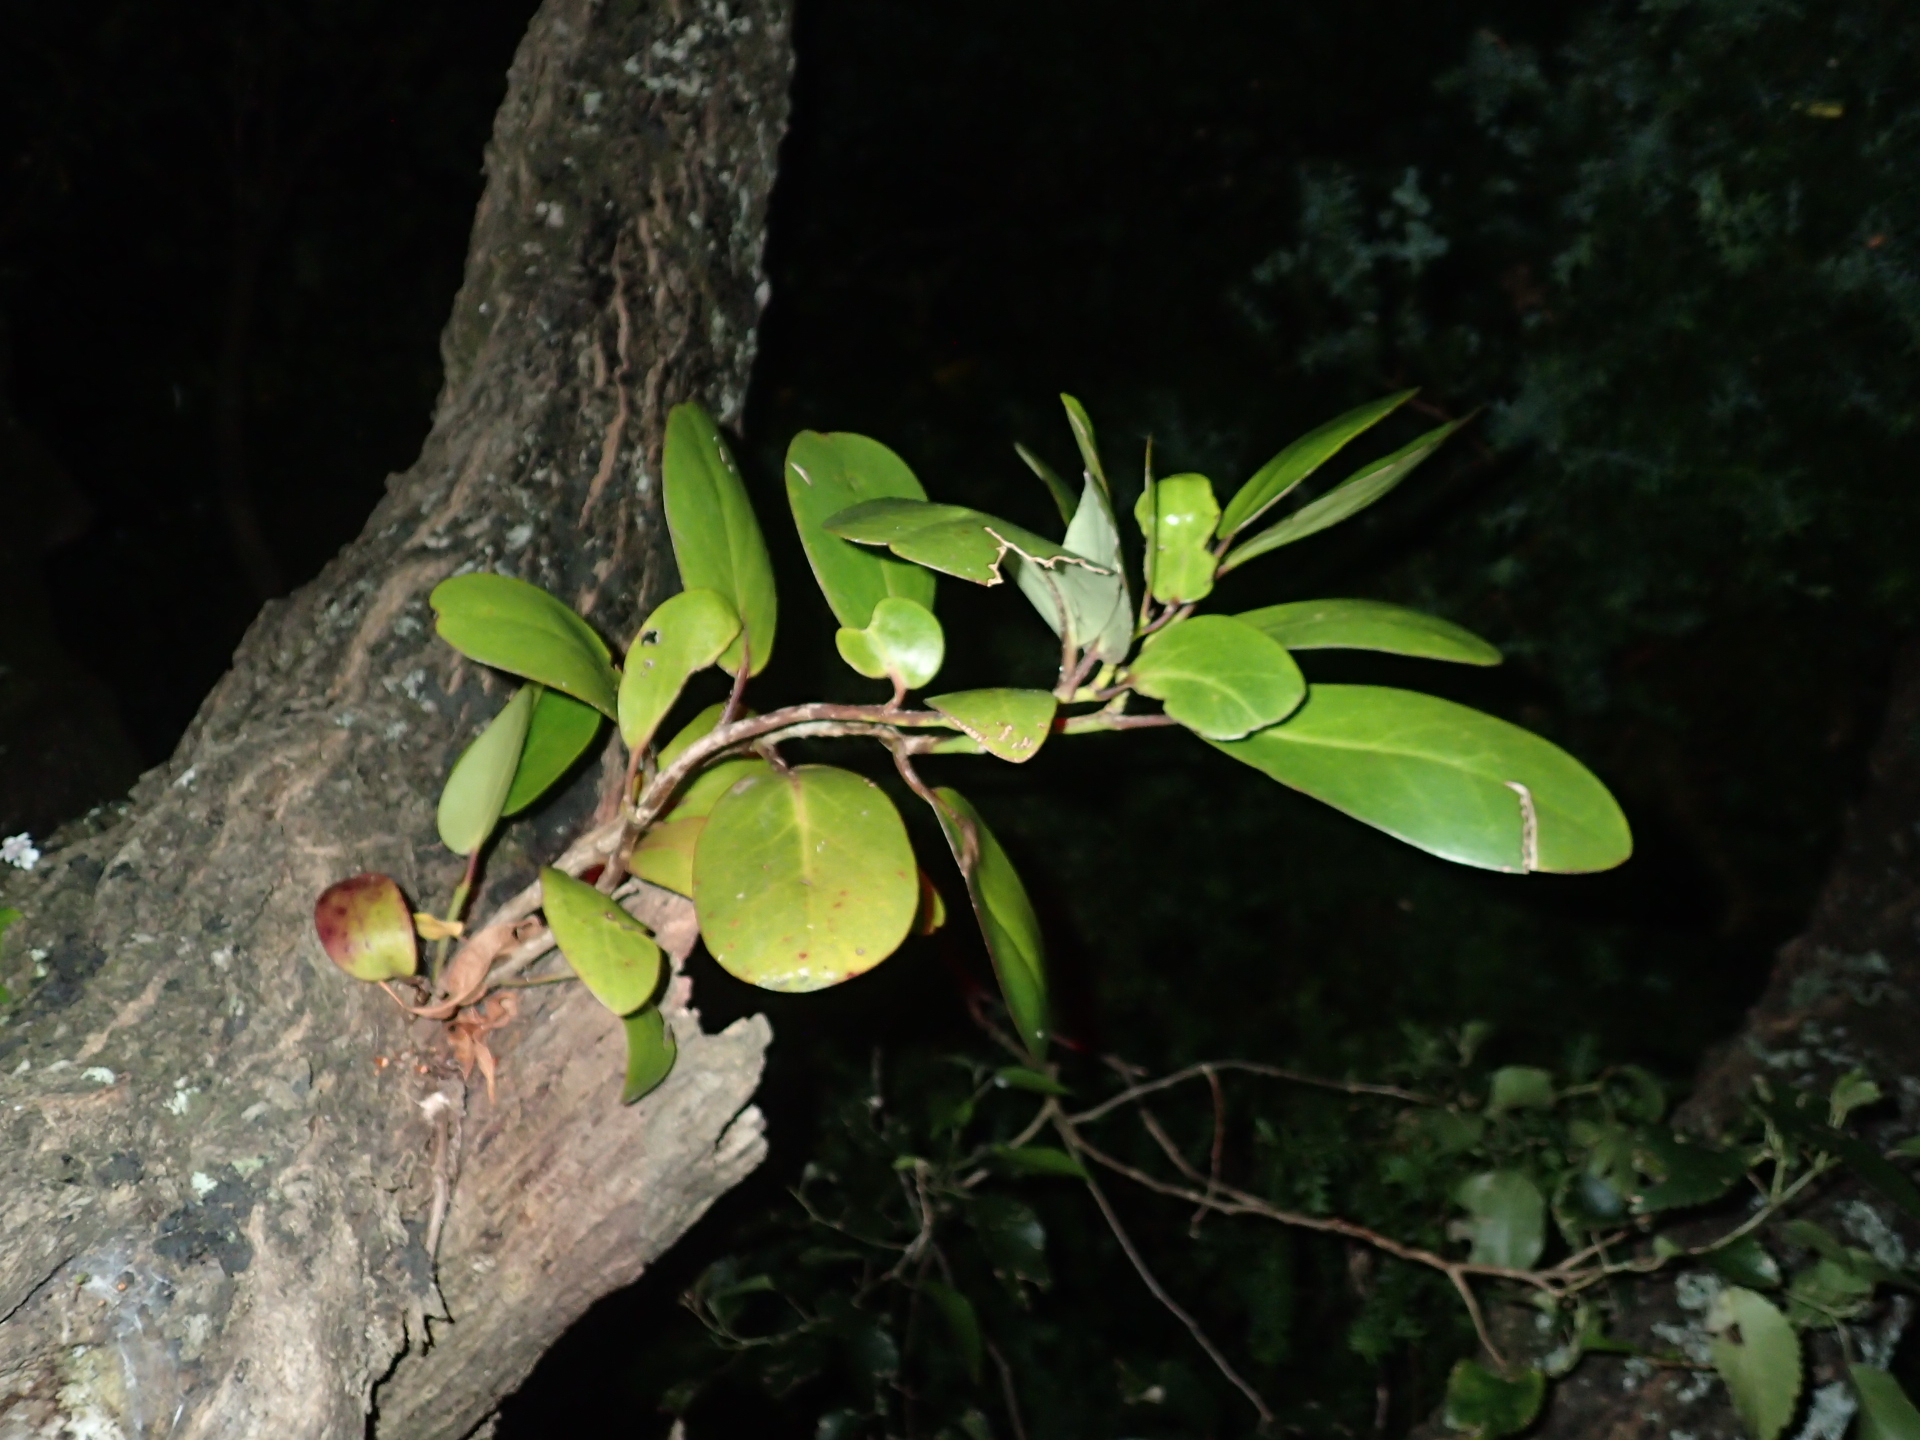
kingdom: Plantae
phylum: Tracheophyta
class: Magnoliopsida
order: Myrtales
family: Myrtaceae
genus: Metrosideros
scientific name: Metrosideros excelsa
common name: New zealand christmastree
